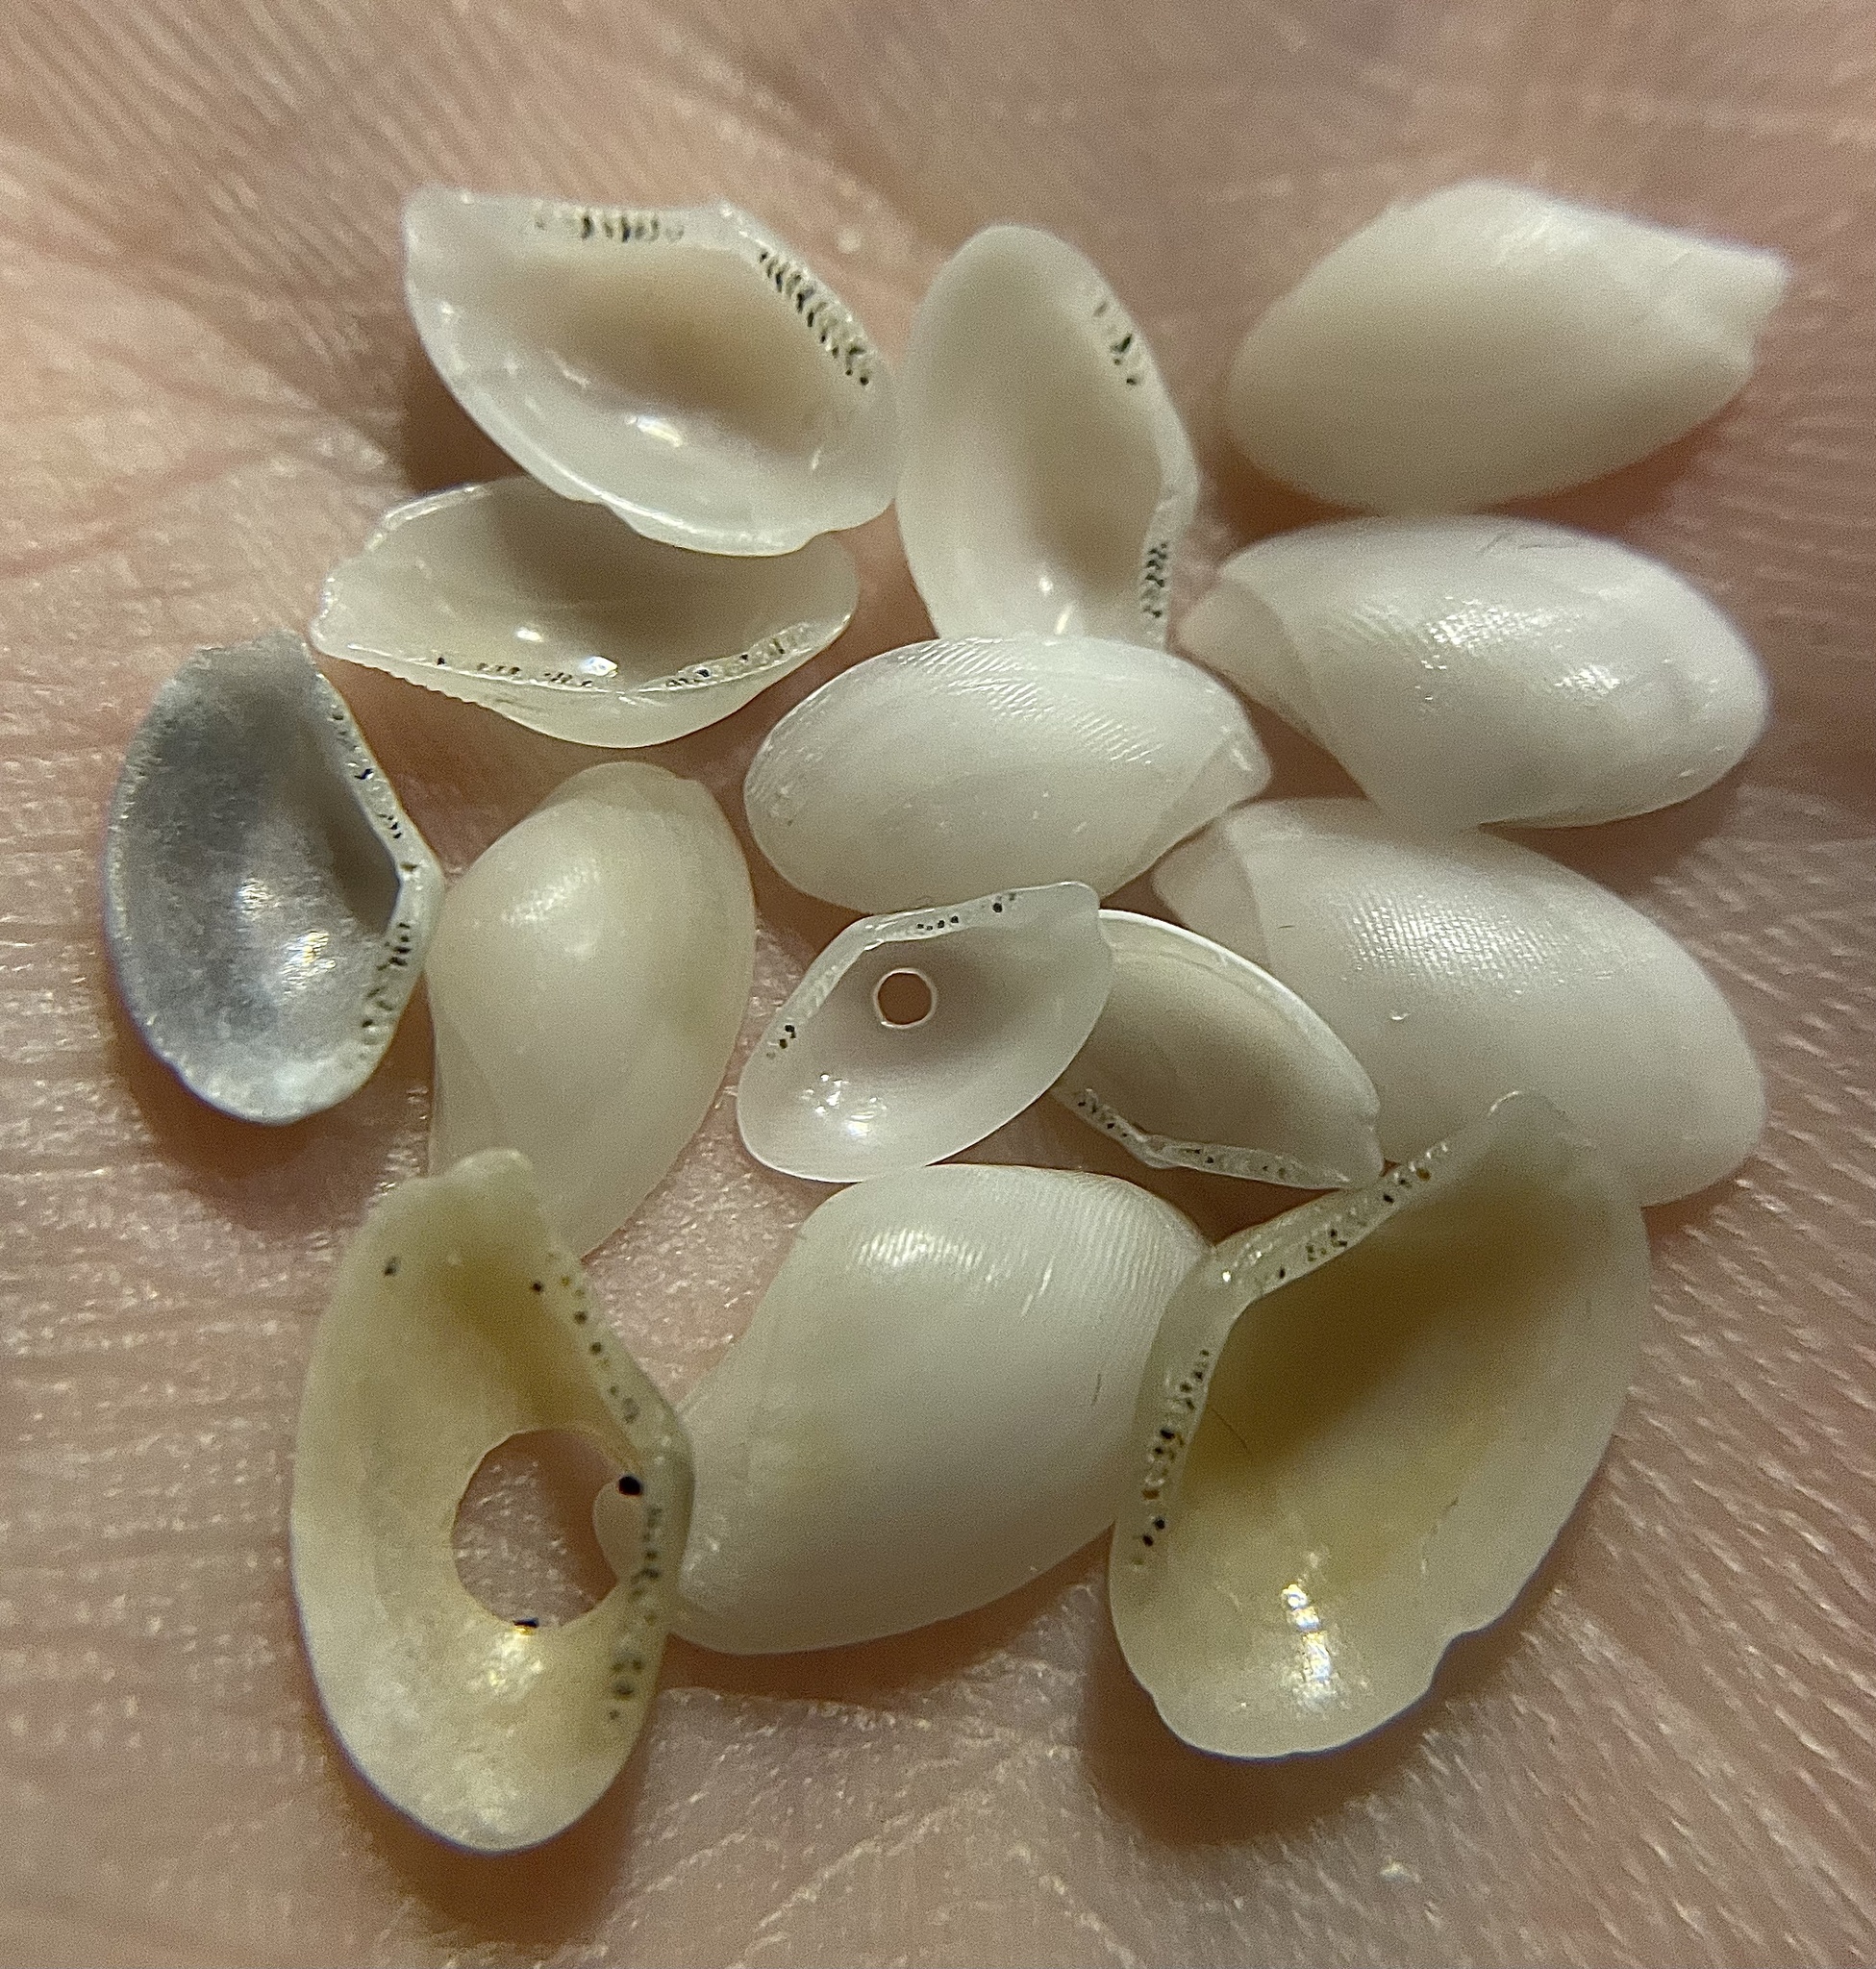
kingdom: Animalia
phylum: Mollusca
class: Bivalvia
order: Nuculanida
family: Nuculanidae
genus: Lembulus
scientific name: Lembulus pella
